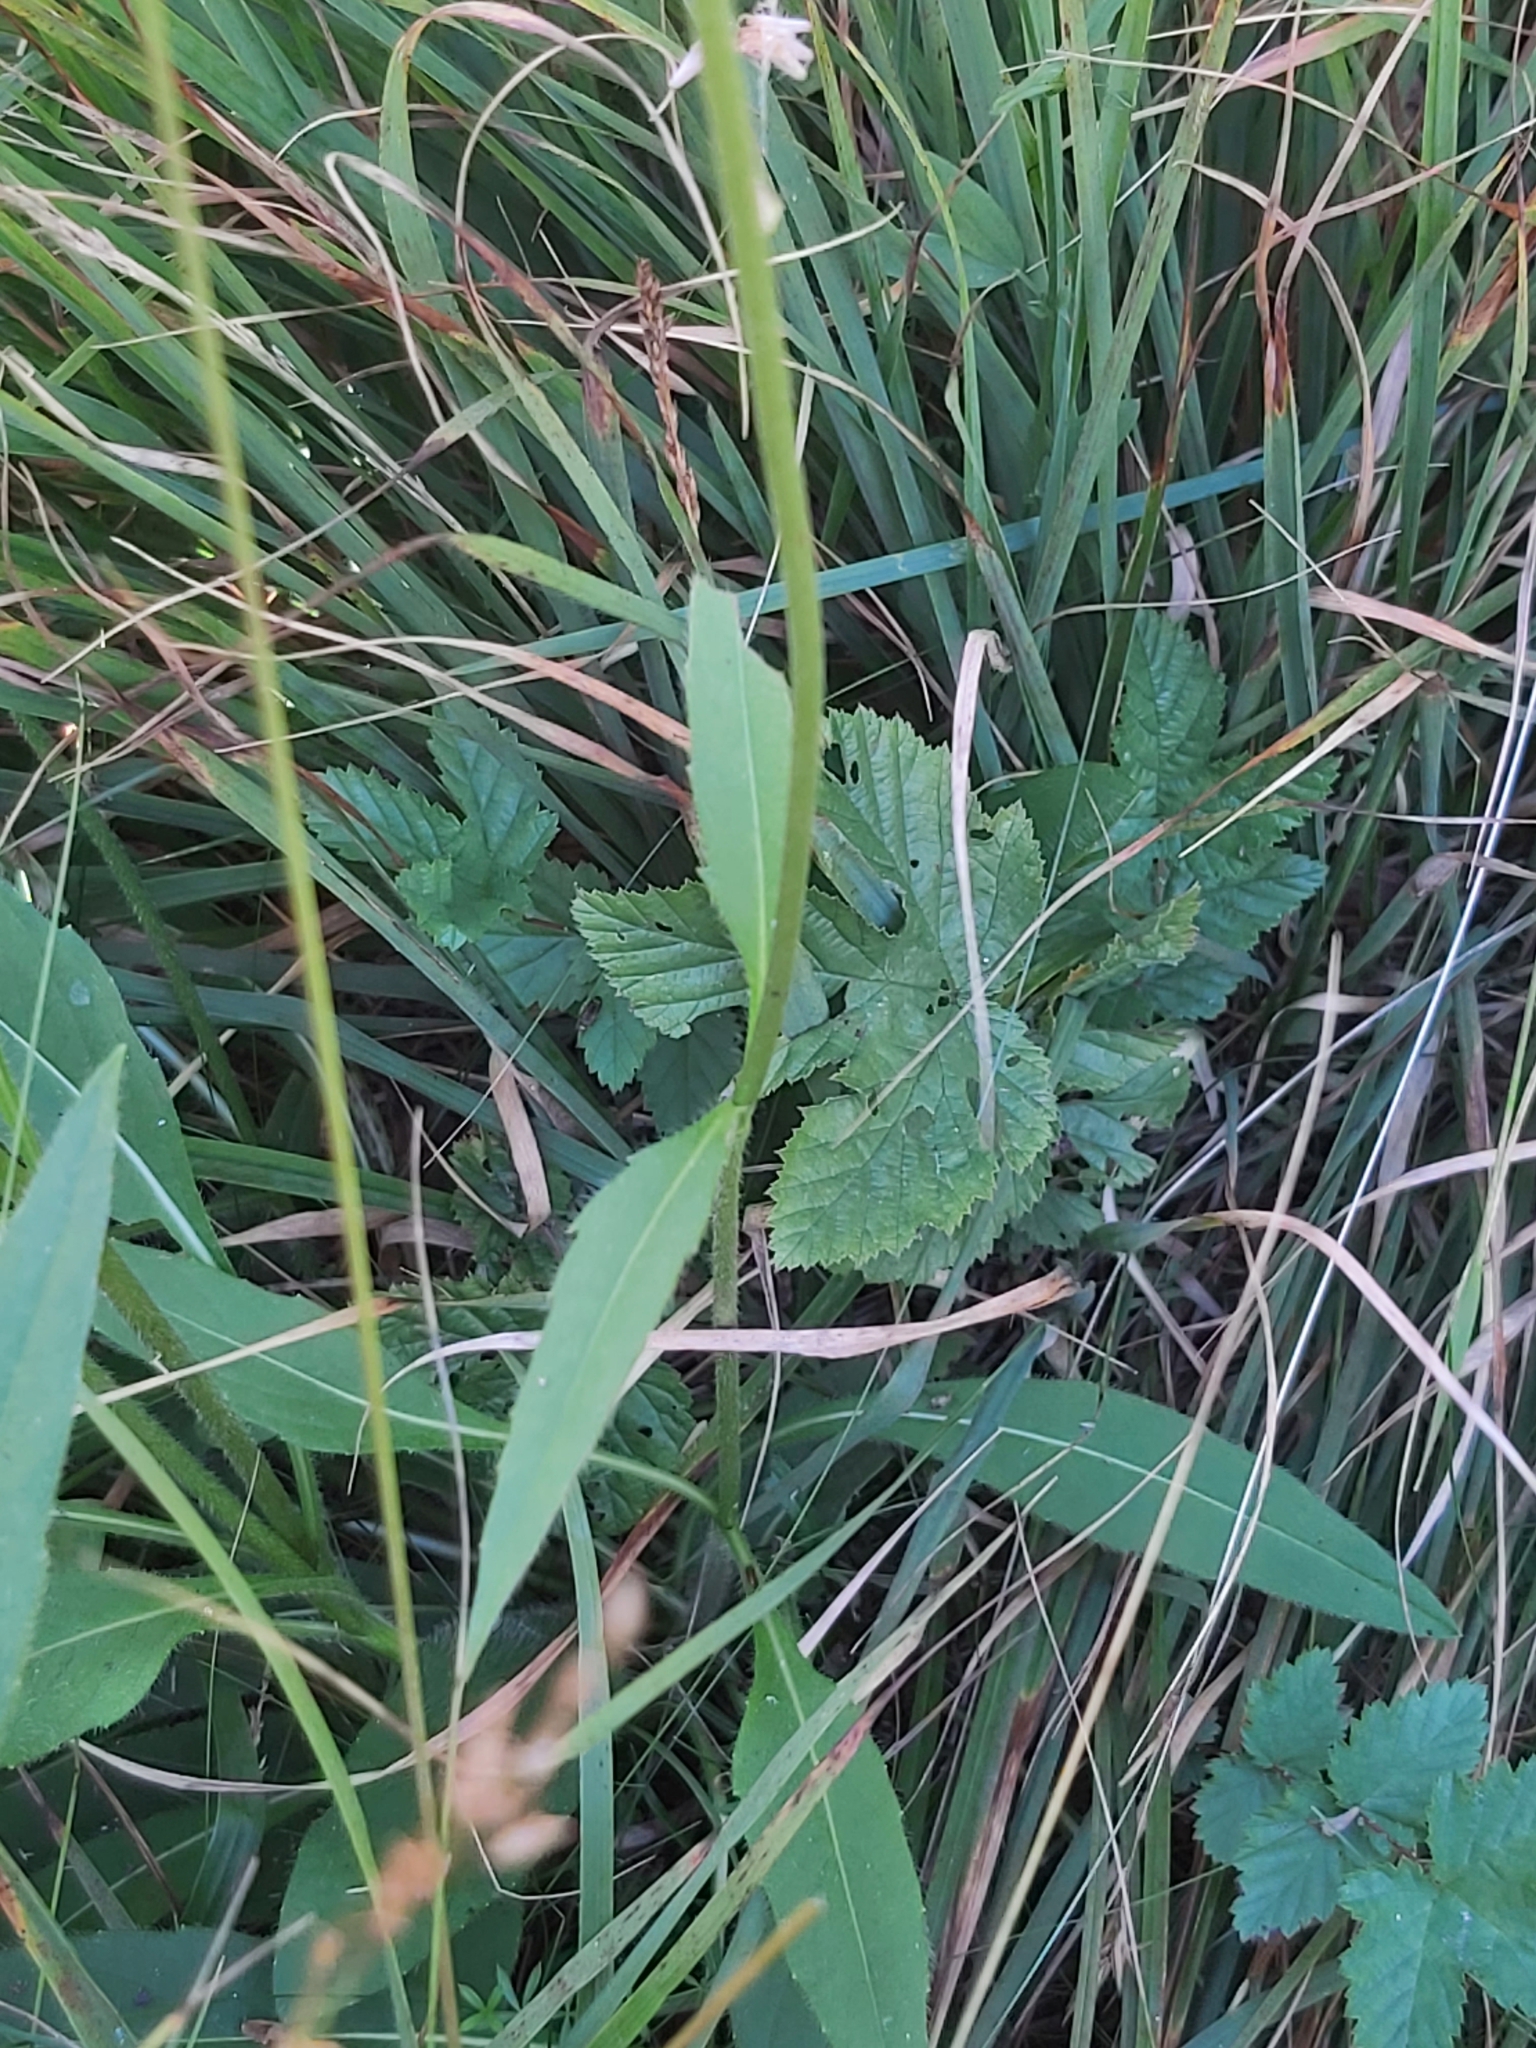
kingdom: Plantae
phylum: Tracheophyta
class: Magnoliopsida
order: Dipsacales
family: Caprifoliaceae
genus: Succisa
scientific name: Succisa pratensis
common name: Devil's-bit
